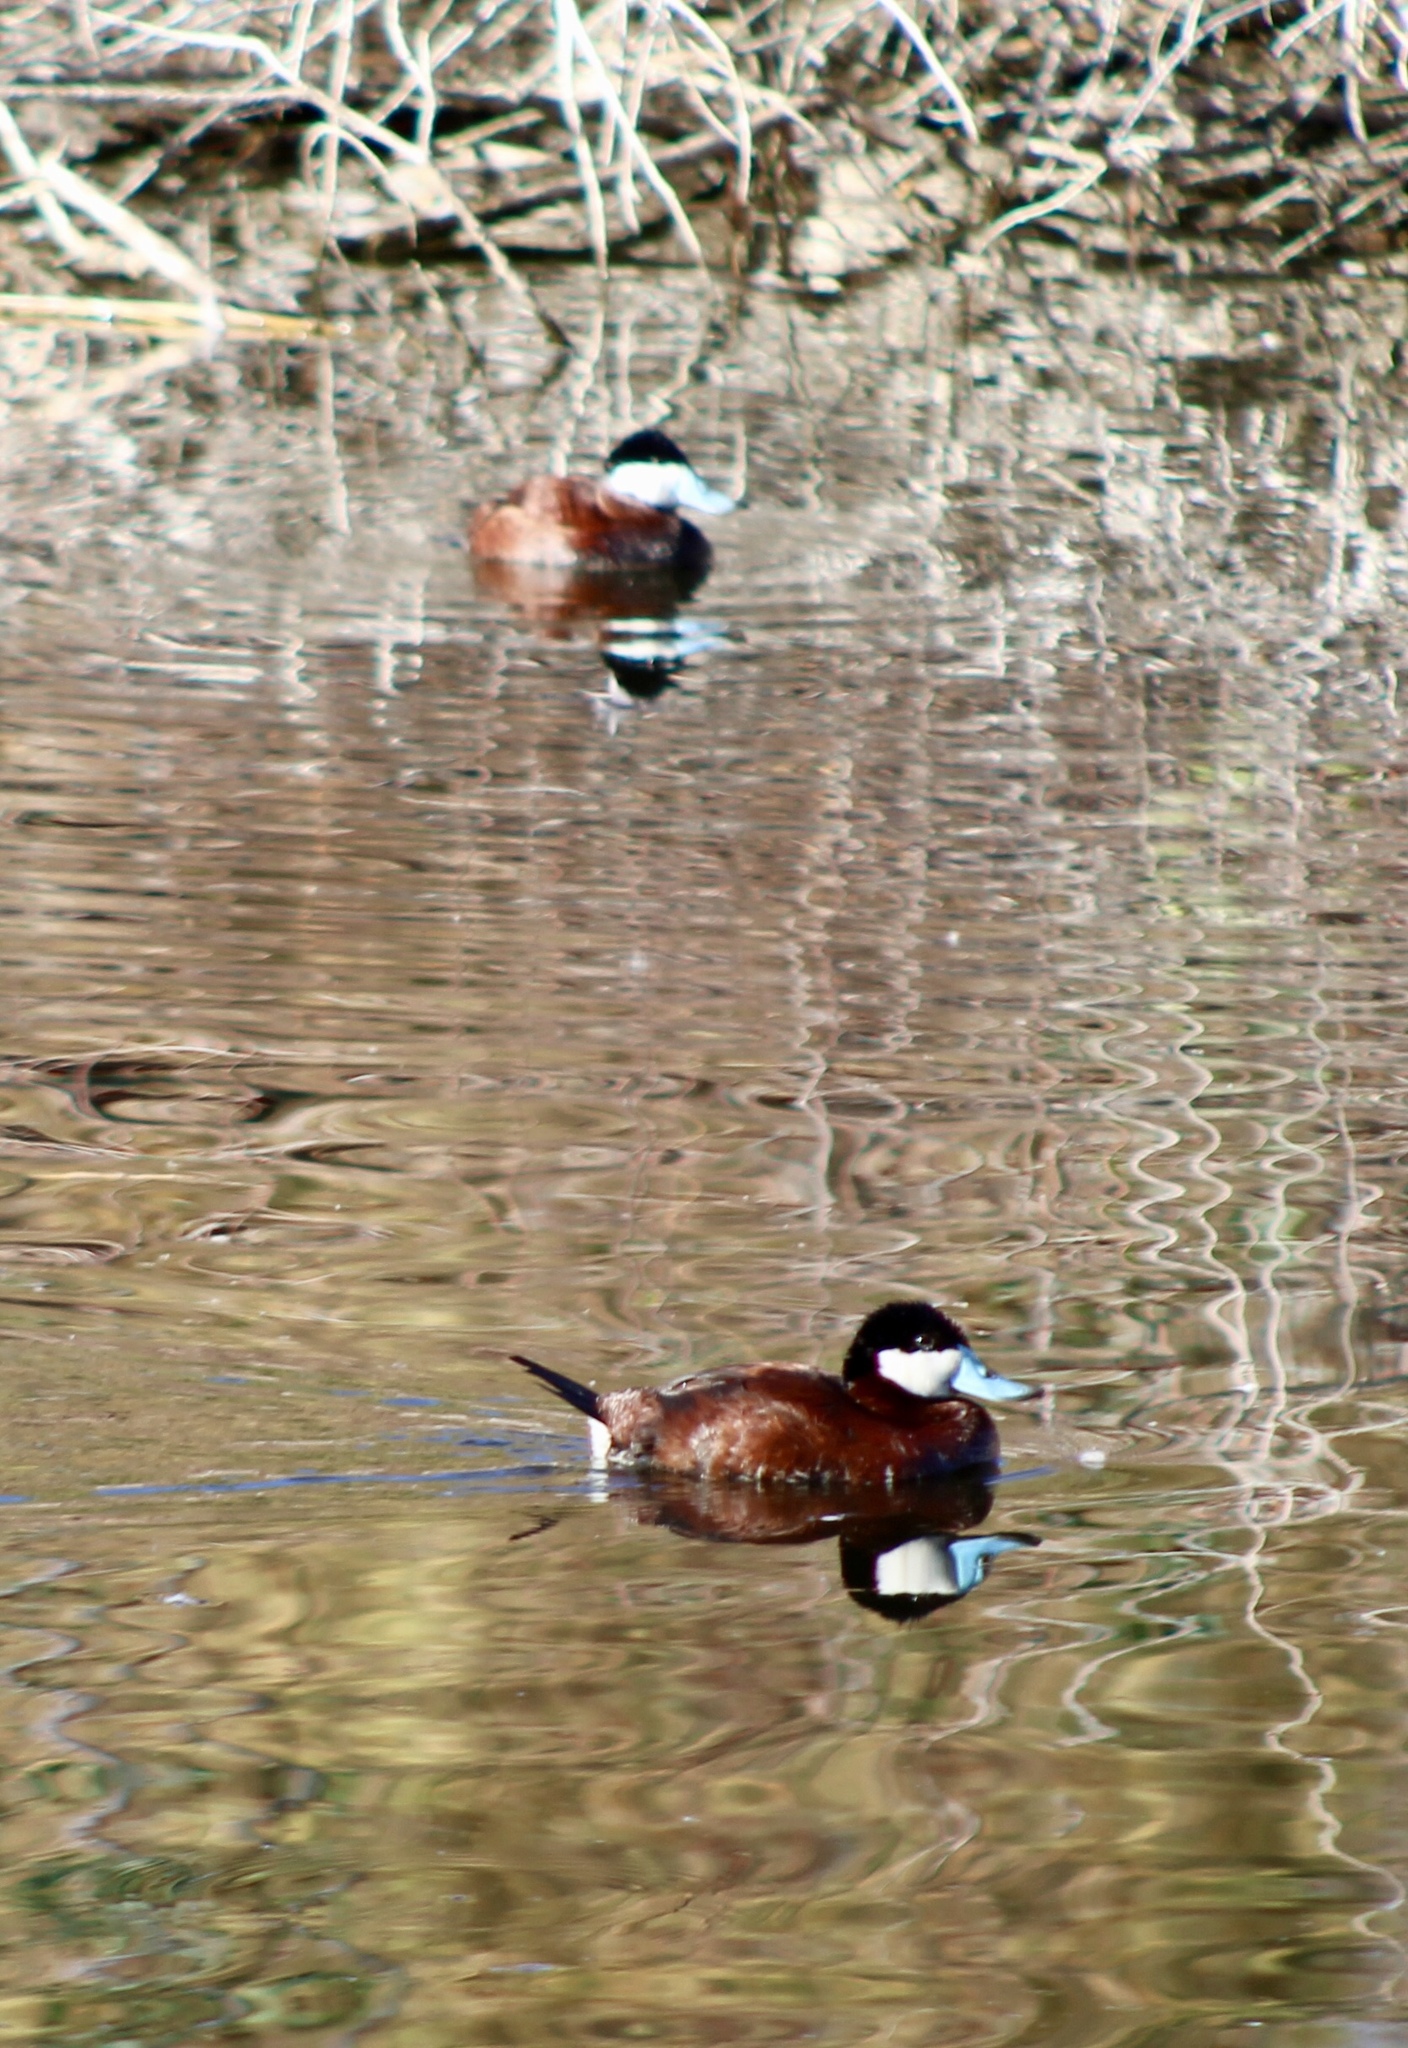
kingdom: Animalia
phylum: Chordata
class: Aves
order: Anseriformes
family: Anatidae
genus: Oxyura
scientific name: Oxyura jamaicensis
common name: Ruddy duck
